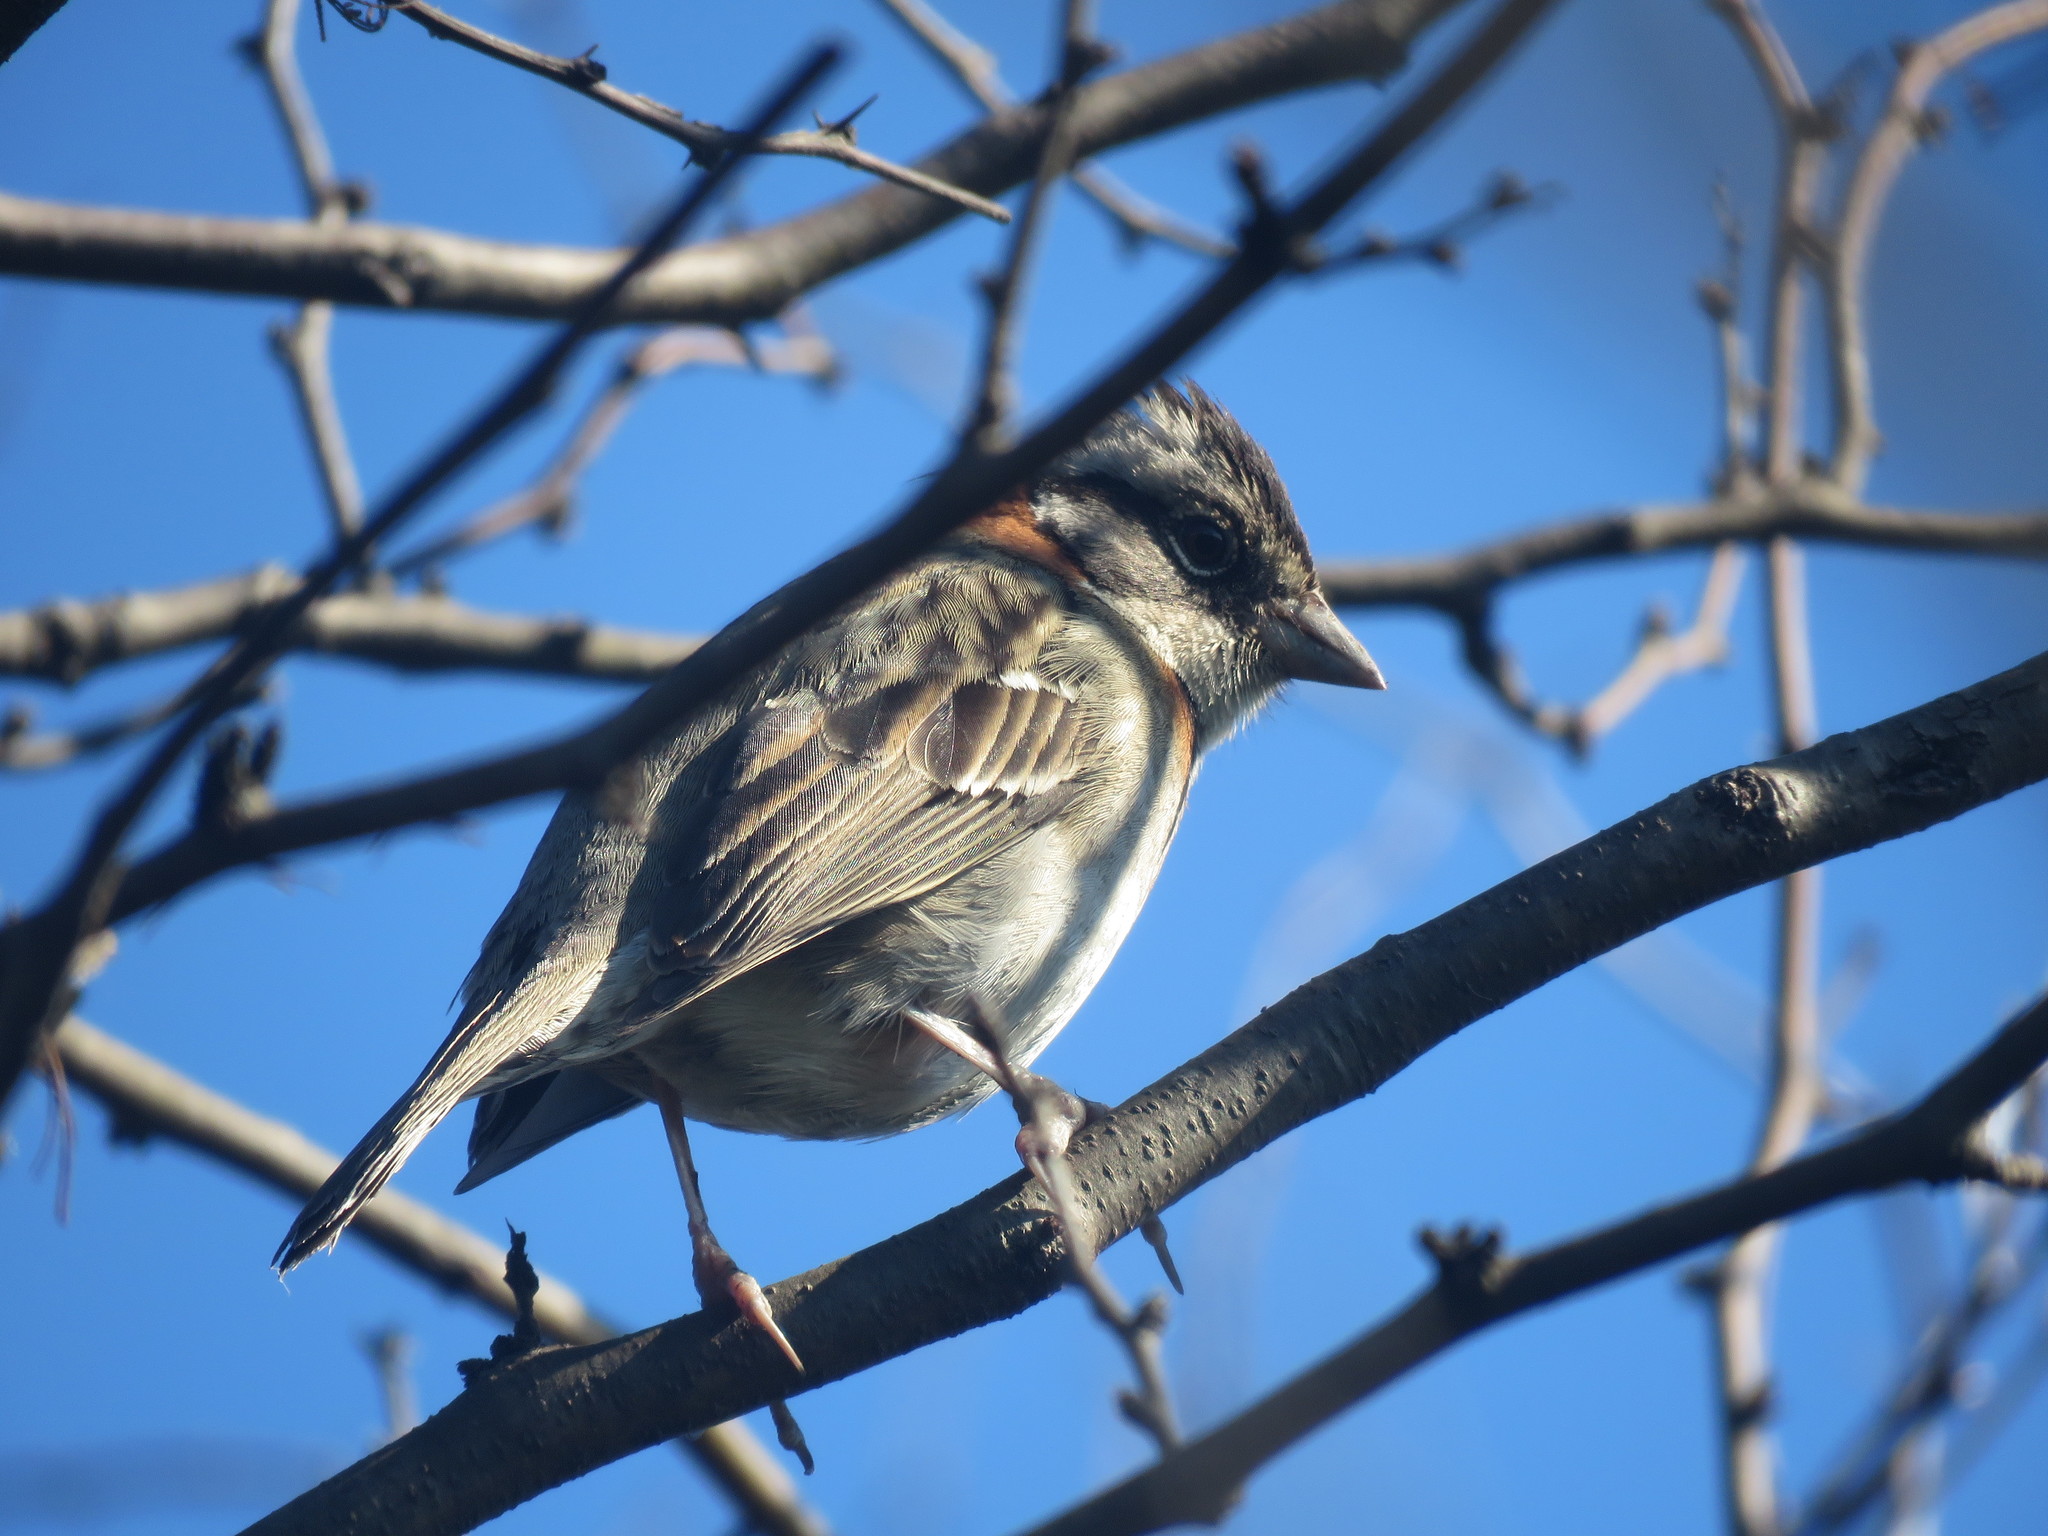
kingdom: Animalia
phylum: Chordata
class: Aves
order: Passeriformes
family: Passerellidae
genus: Zonotrichia
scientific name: Zonotrichia capensis
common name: Rufous-collared sparrow
